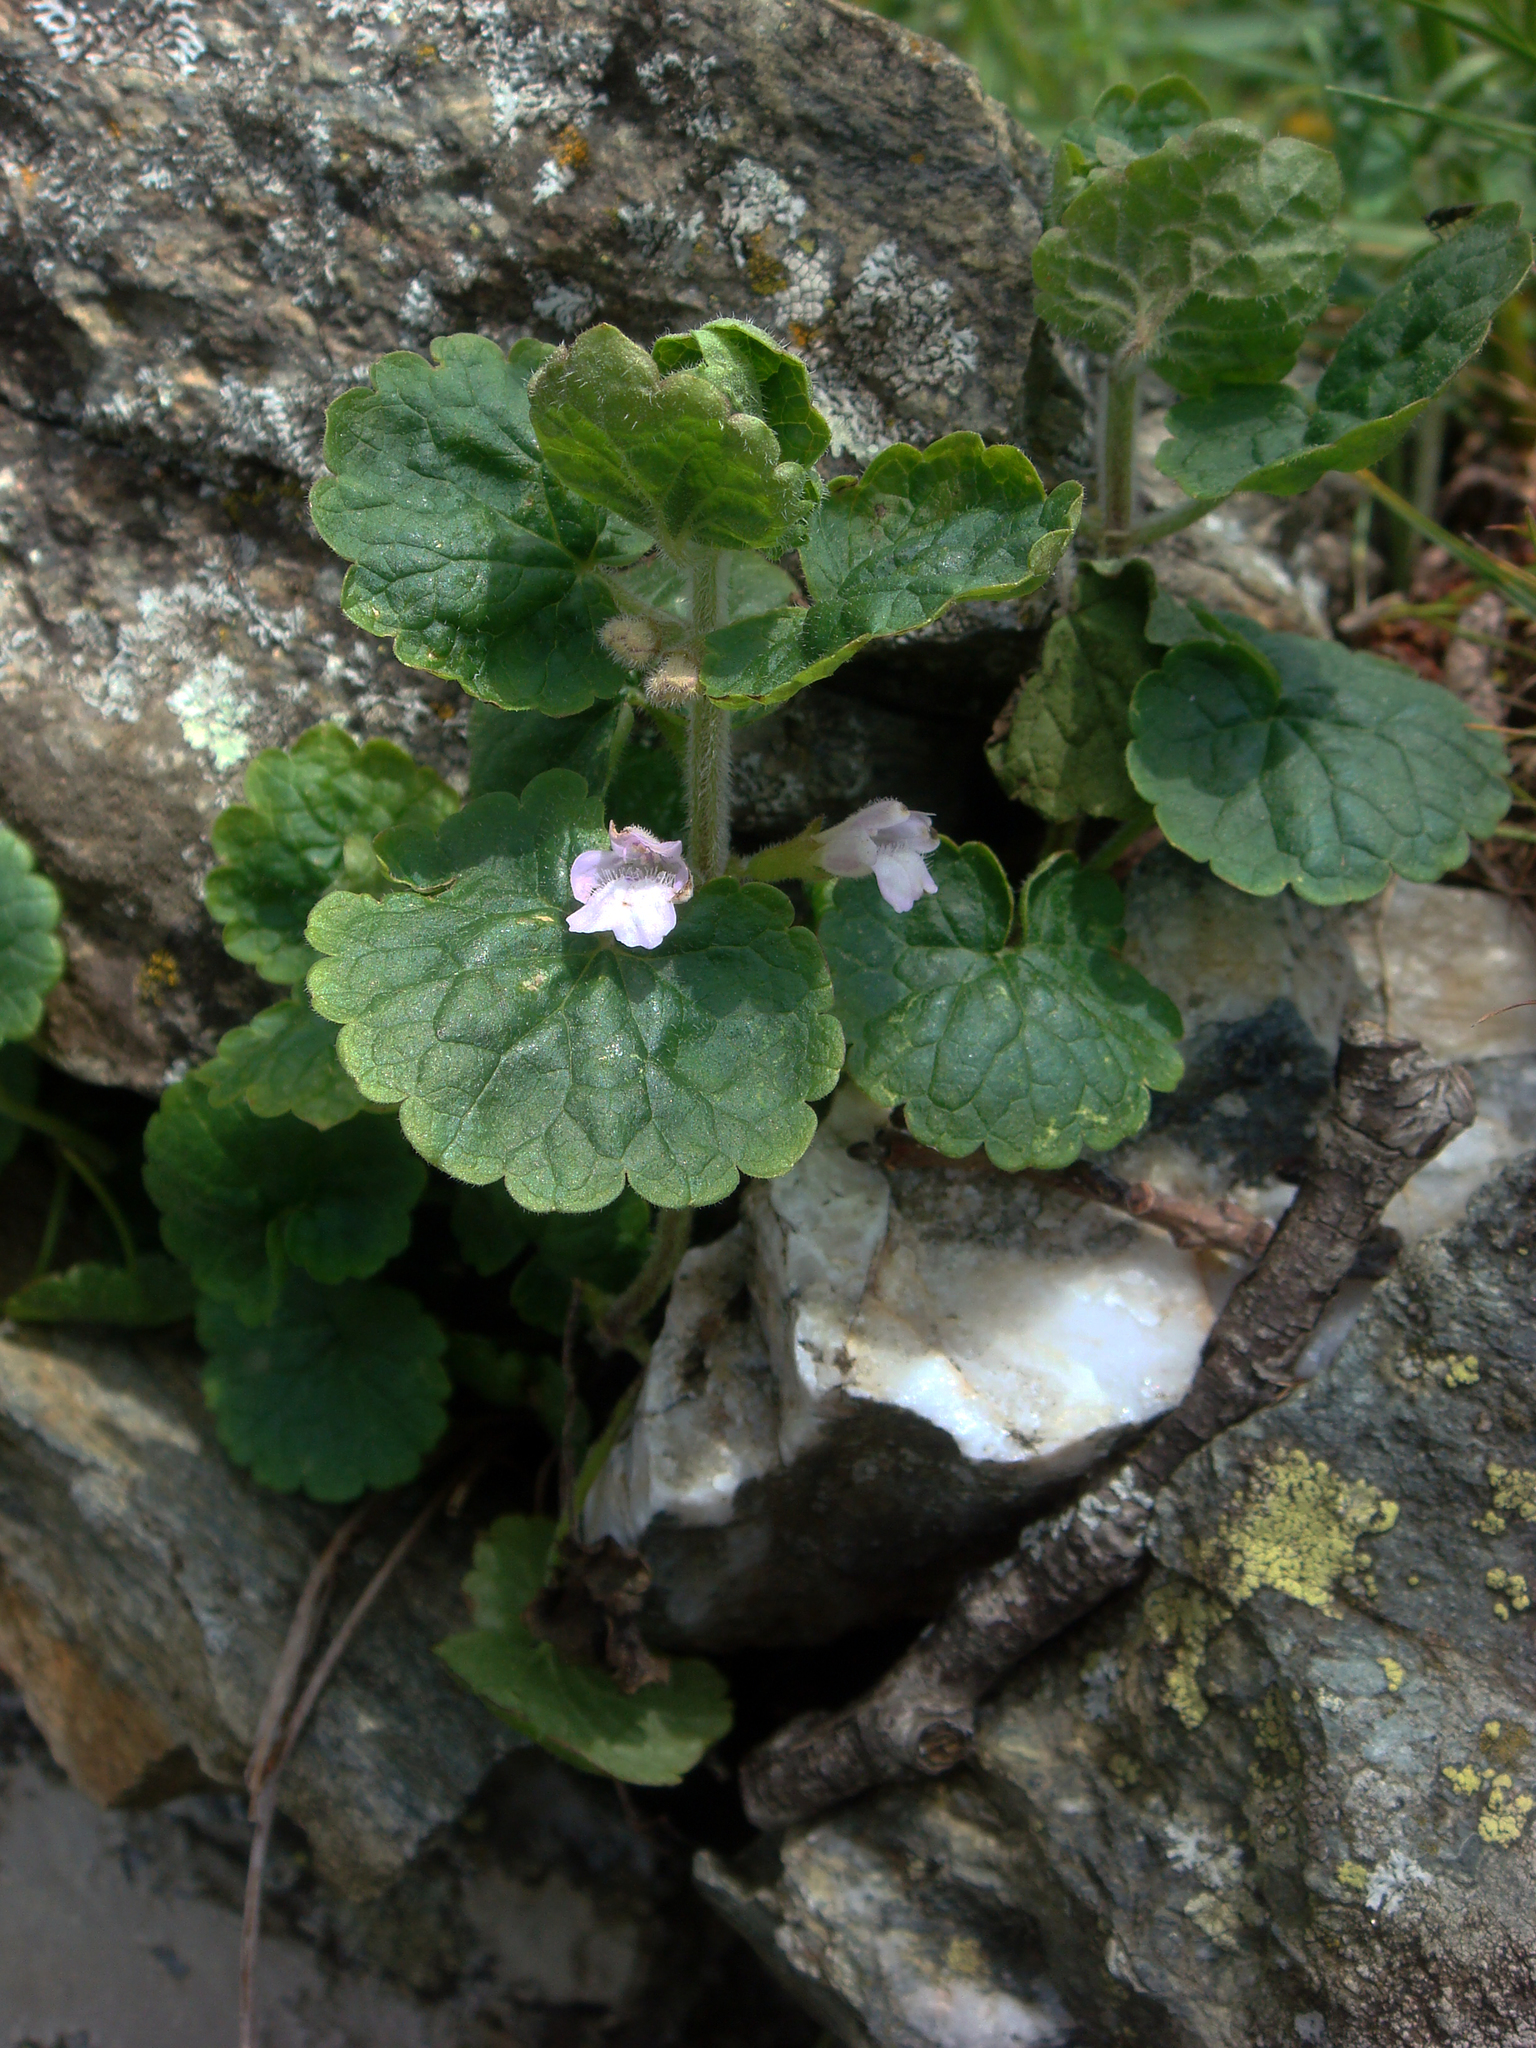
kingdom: Plantae
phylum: Tracheophyta
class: Magnoliopsida
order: Lamiales
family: Lamiaceae
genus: Glechoma
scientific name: Glechoma sardoa
